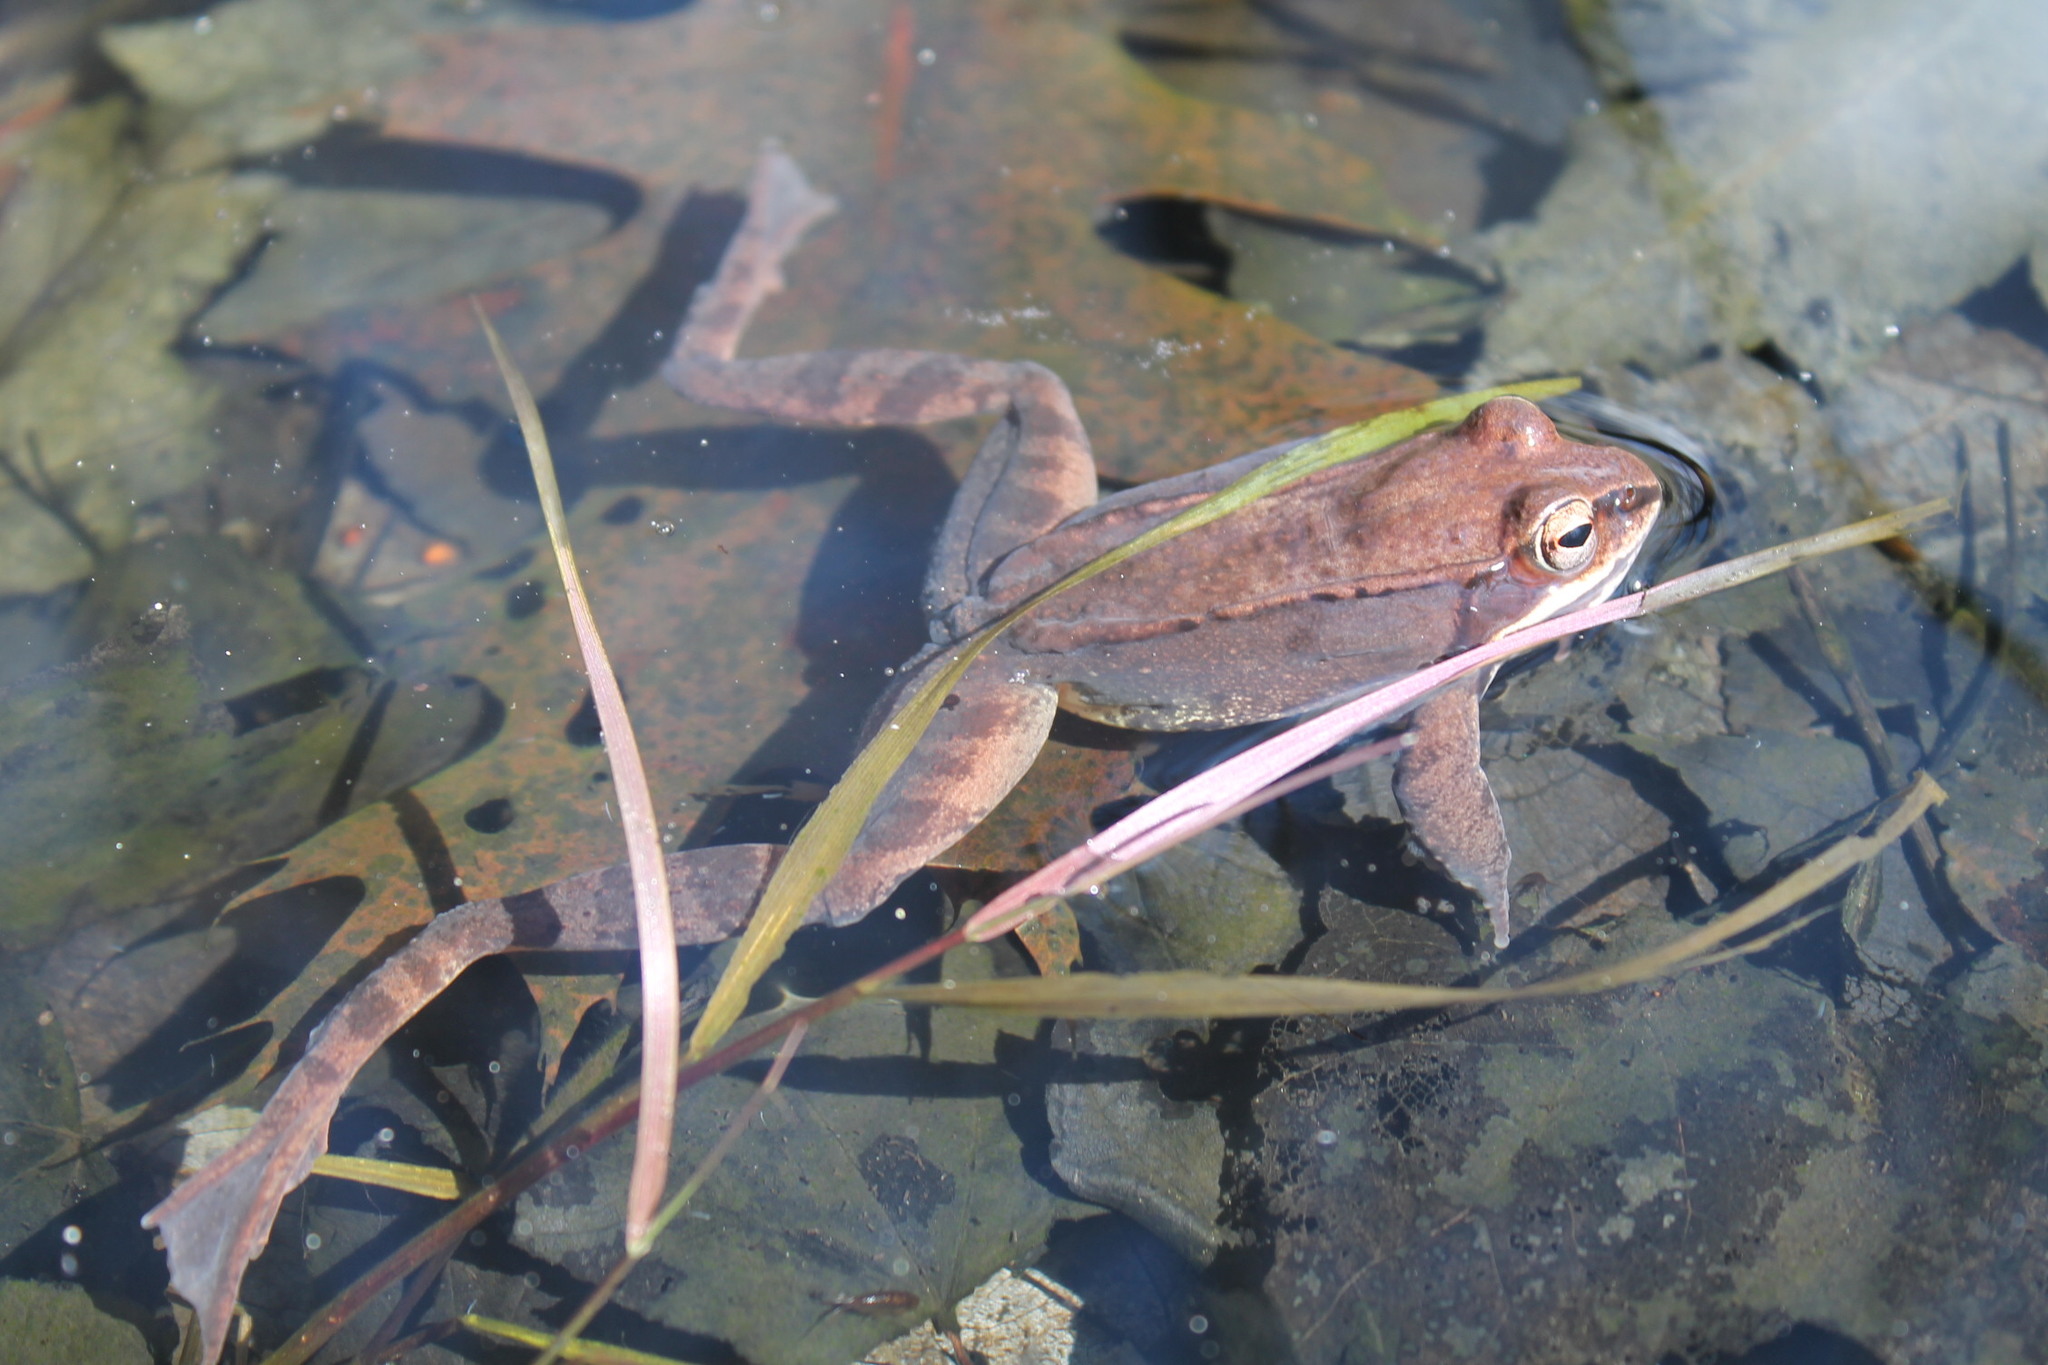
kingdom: Animalia
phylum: Chordata
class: Amphibia
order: Anura
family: Ranidae
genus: Lithobates
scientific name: Lithobates sylvaticus
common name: Wood frog
